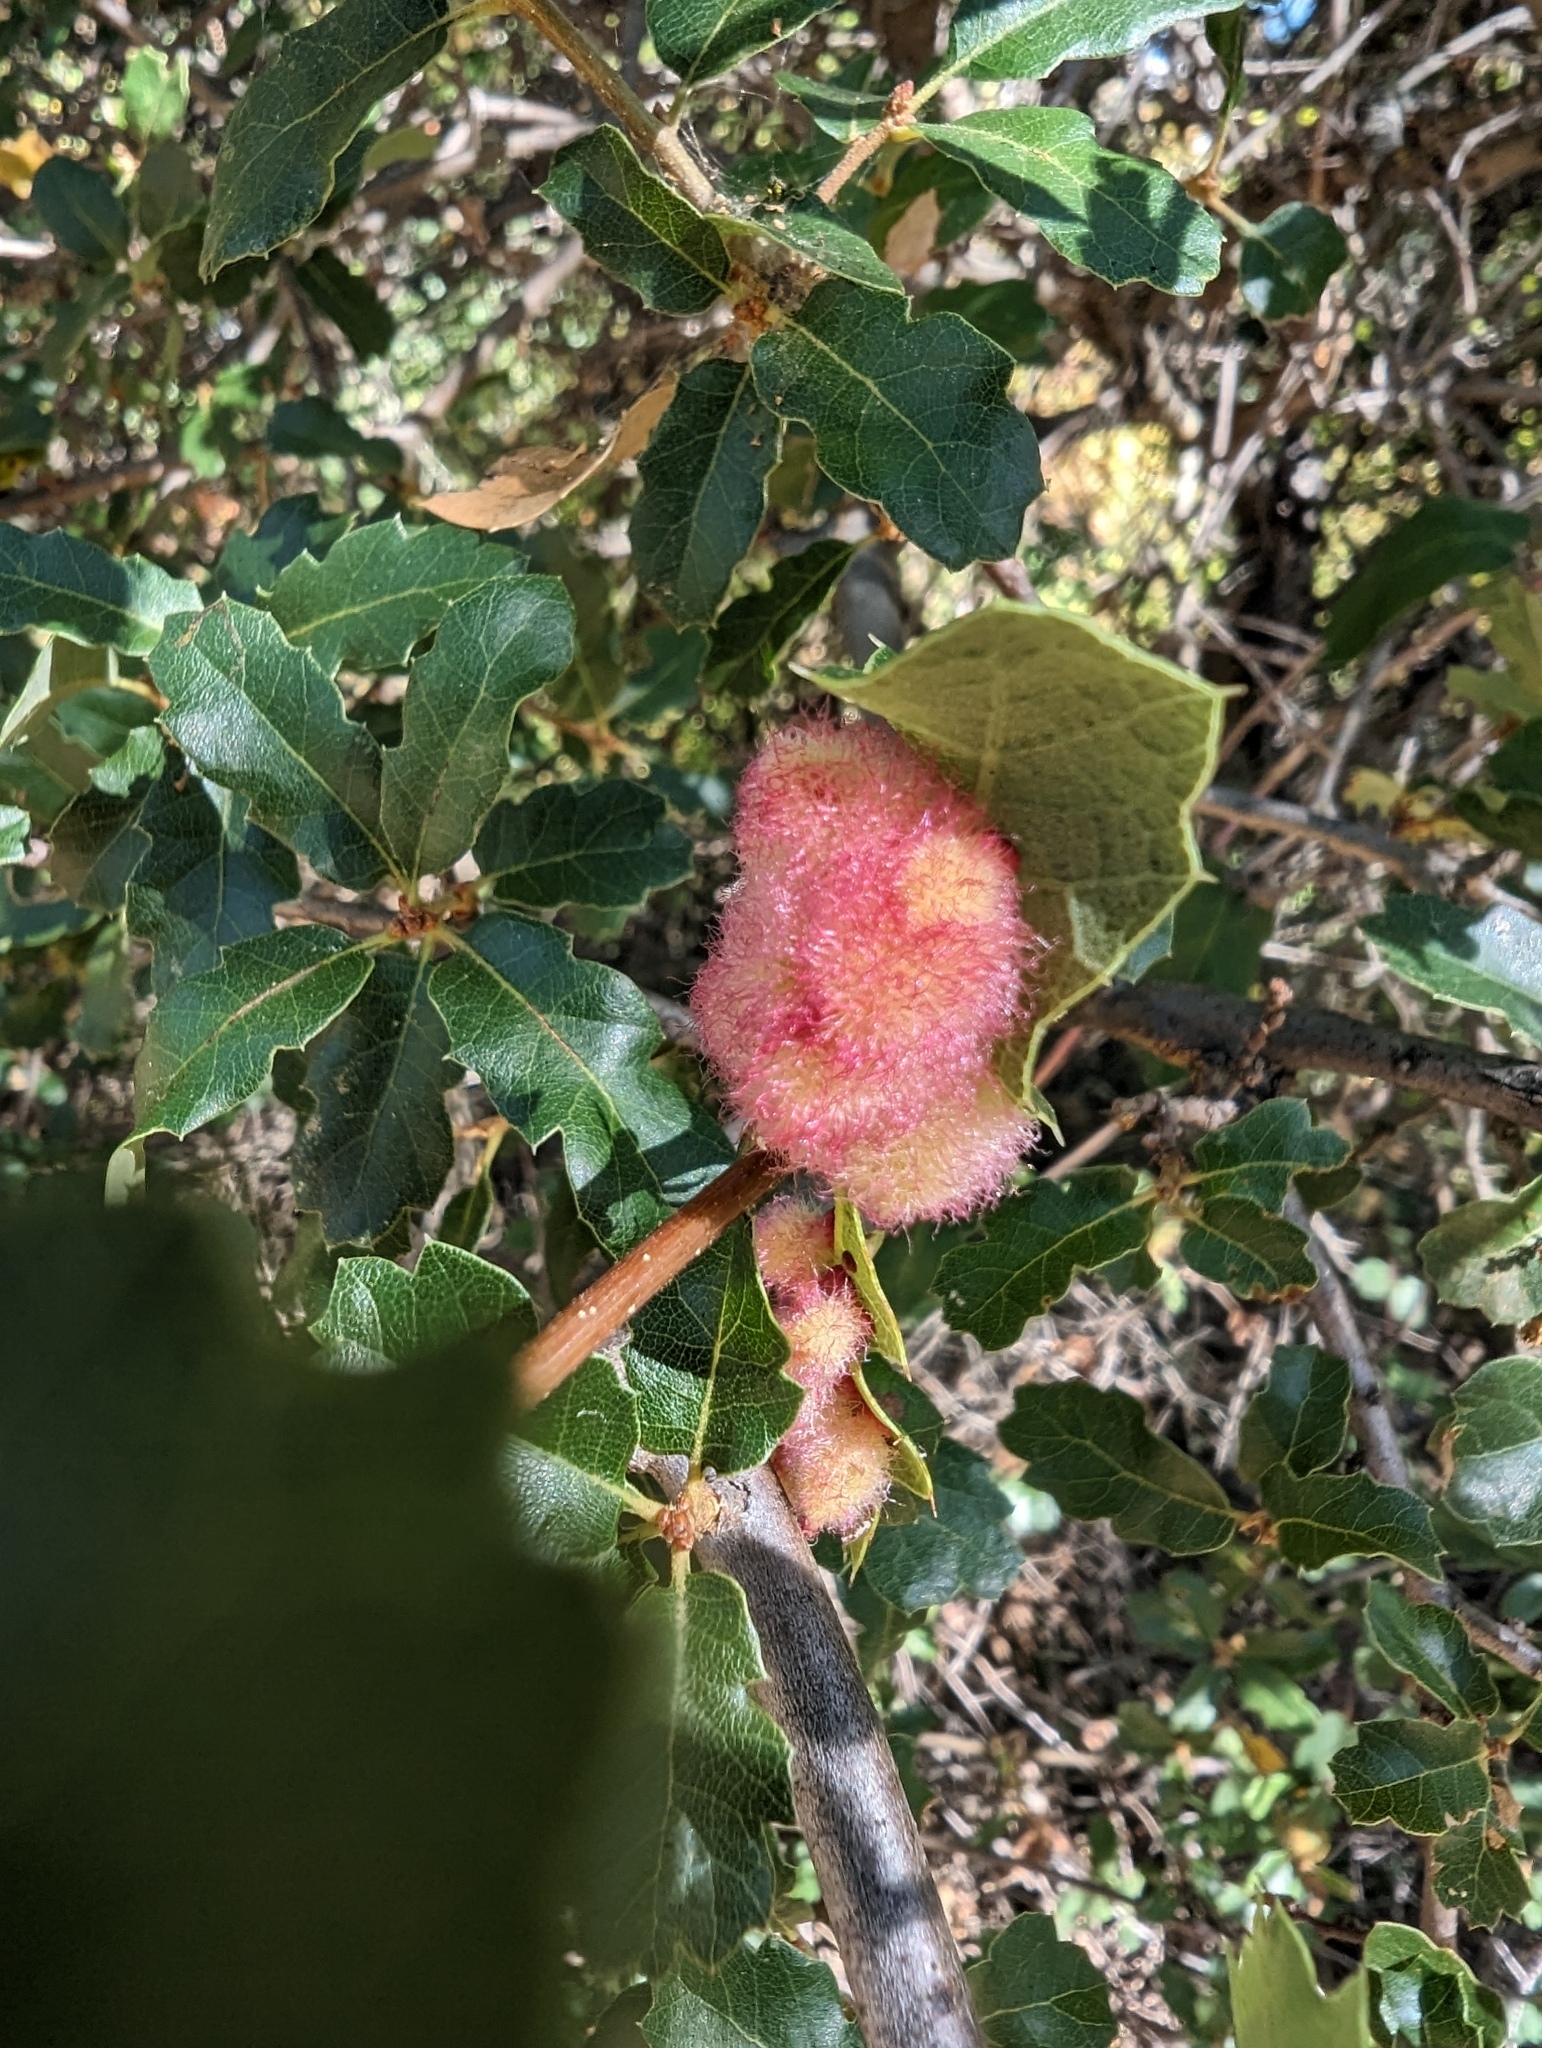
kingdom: Animalia
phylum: Arthropoda
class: Insecta
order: Hymenoptera
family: Cynipidae
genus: Andricus
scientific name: Andricus
